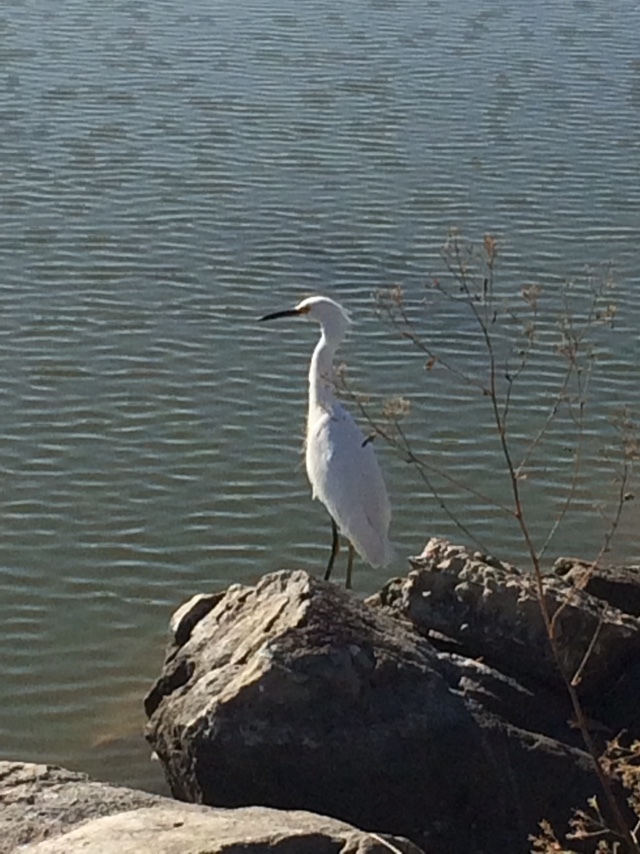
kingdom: Animalia
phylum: Chordata
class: Aves
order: Pelecaniformes
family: Ardeidae
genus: Egretta
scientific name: Egretta thula
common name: Snowy egret
